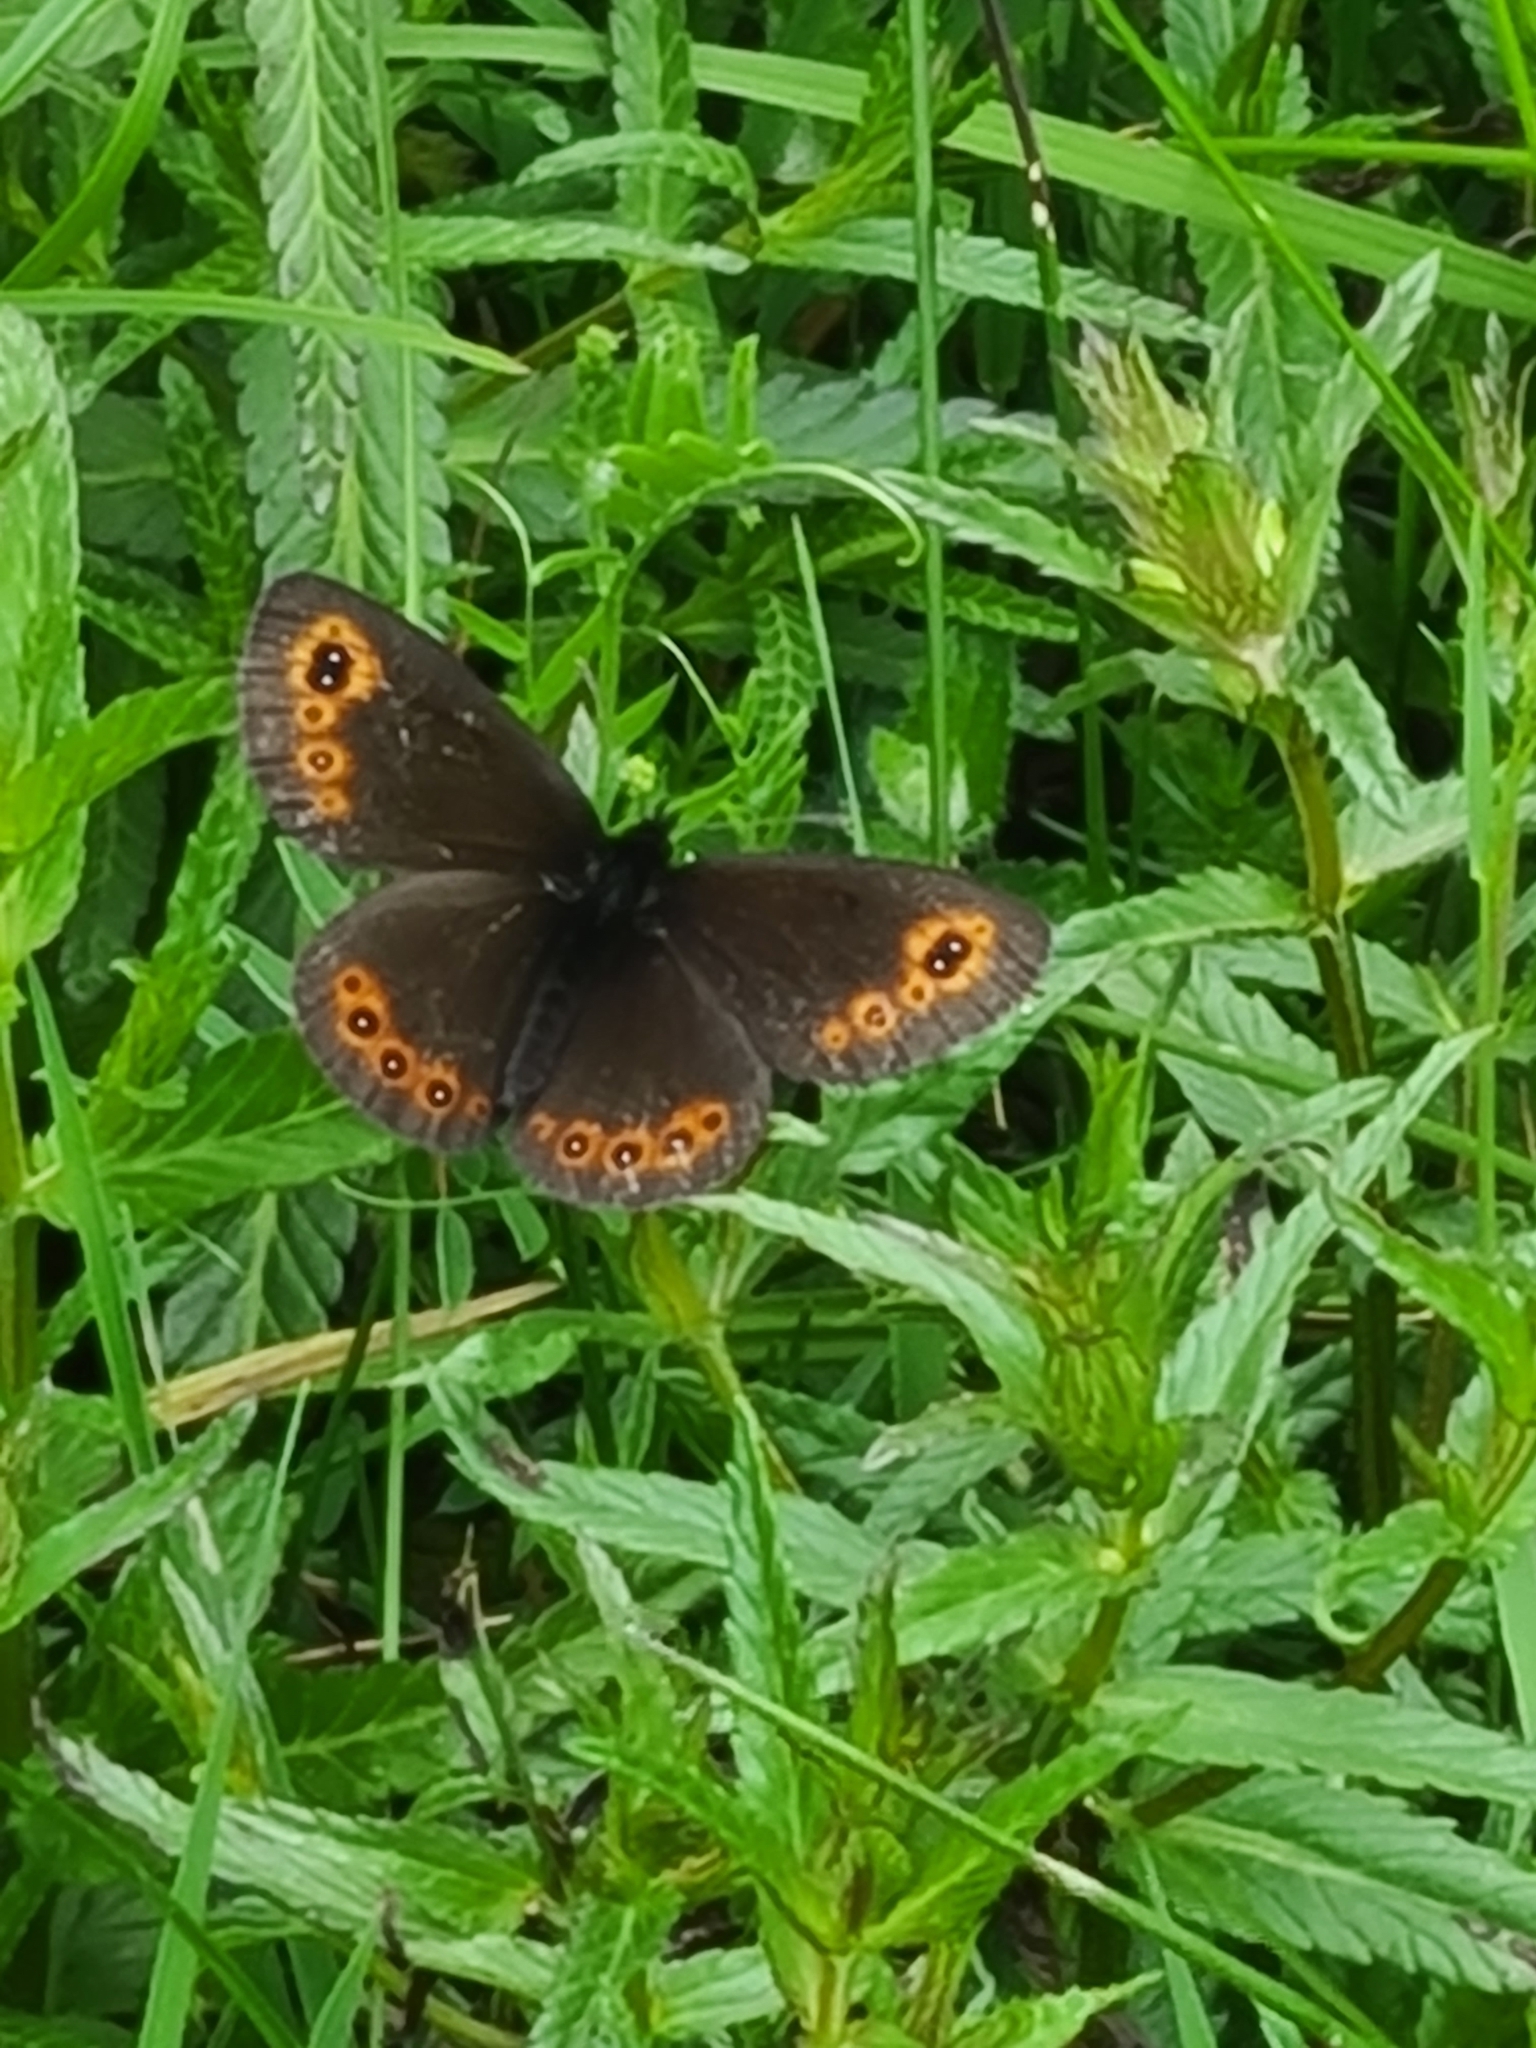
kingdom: Animalia
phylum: Arthropoda
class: Insecta
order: Lepidoptera
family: Nymphalidae
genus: Erebia
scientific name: Erebia medusa
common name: Woodland ringlet
